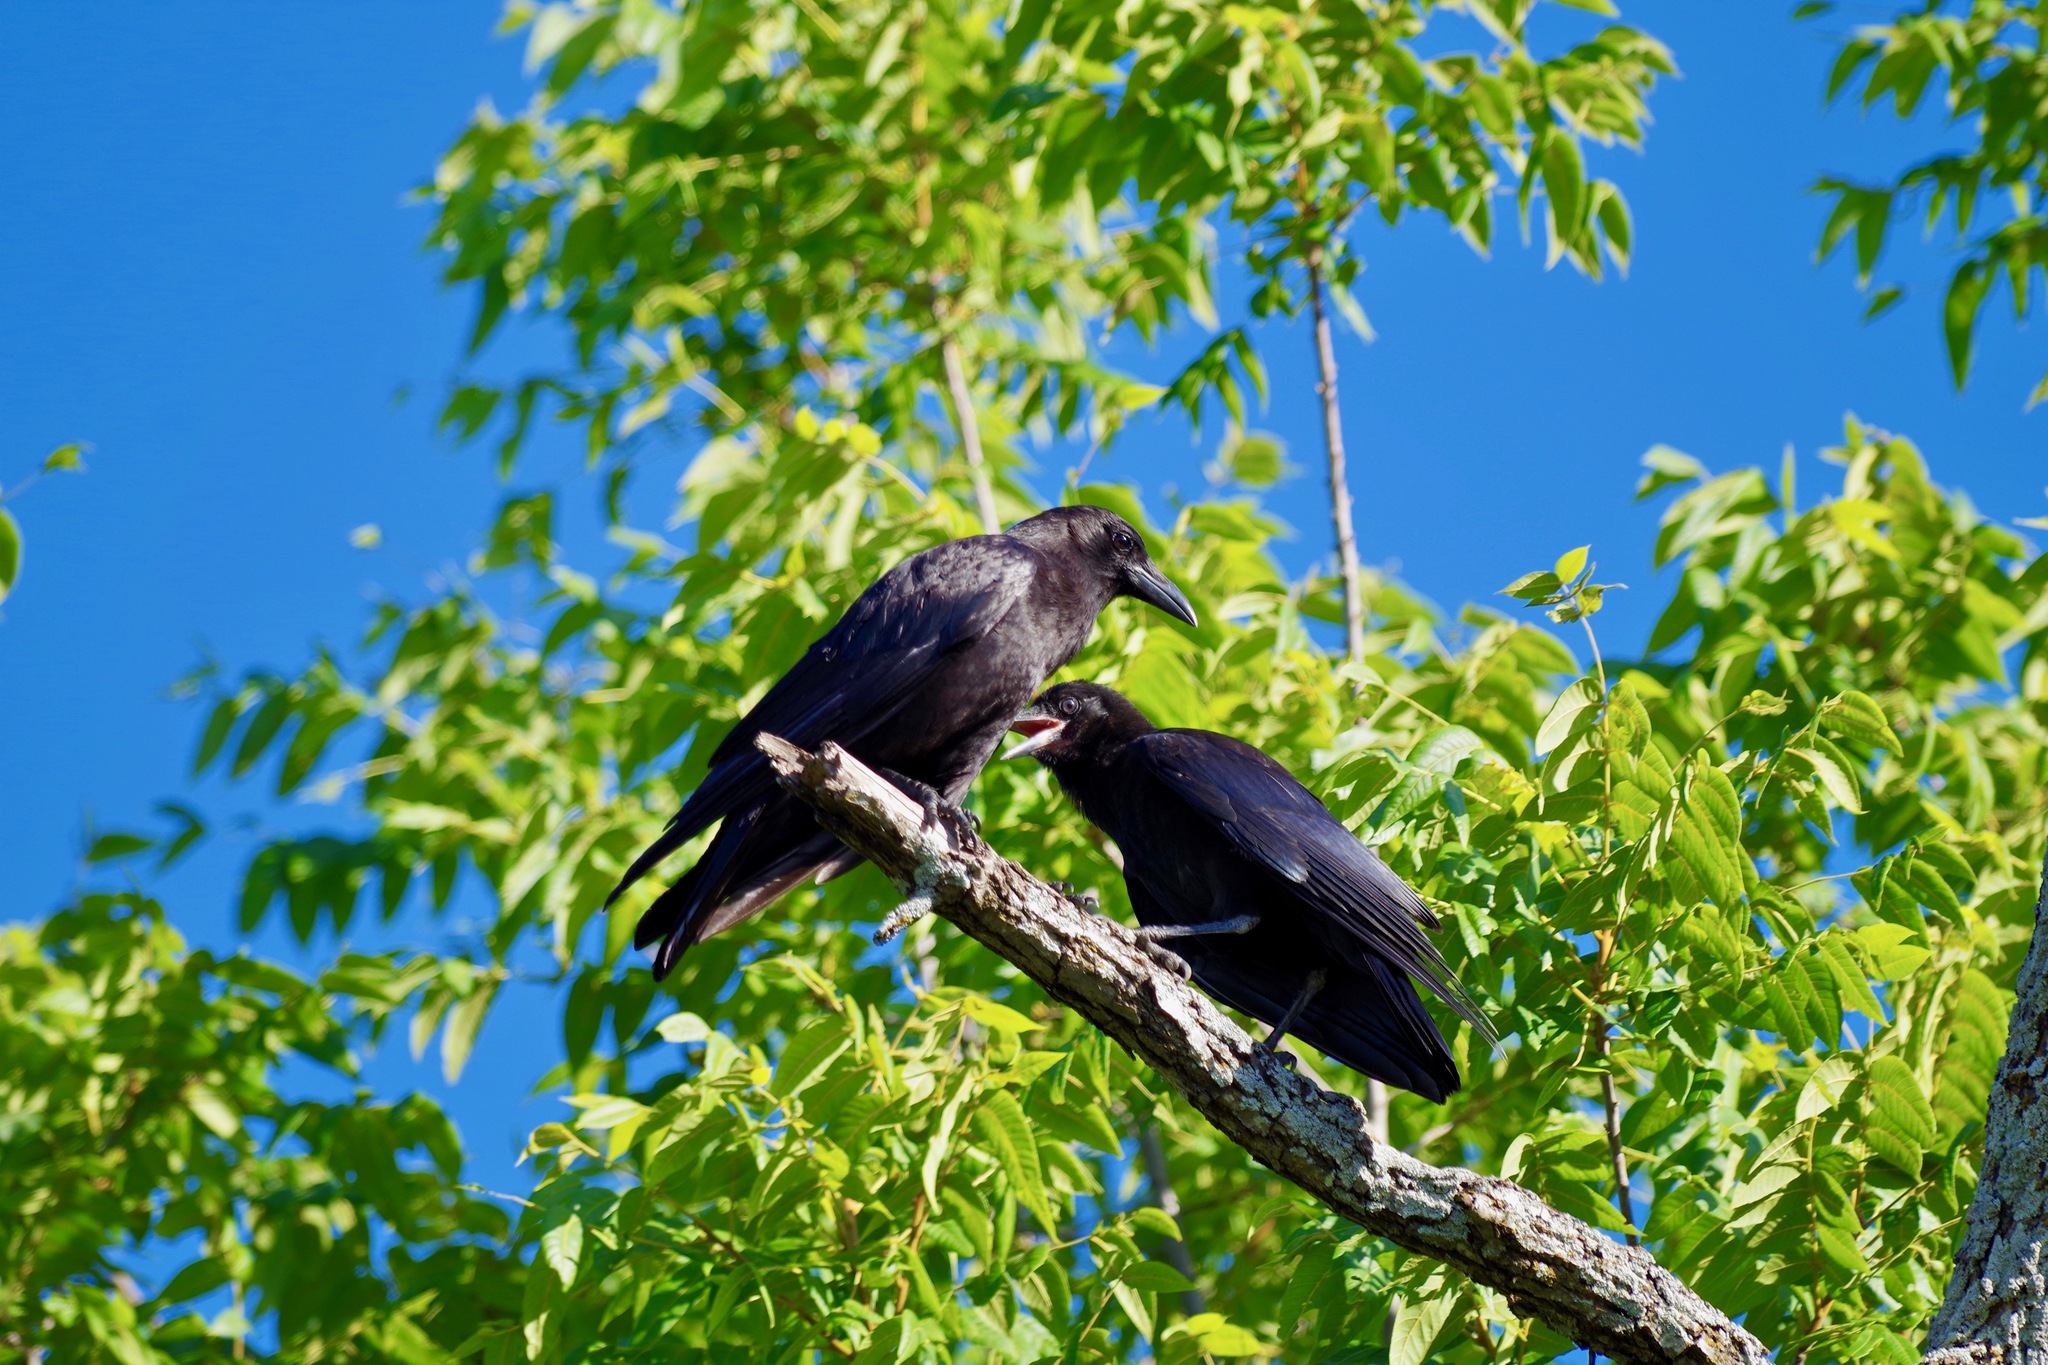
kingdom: Animalia
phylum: Chordata
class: Aves
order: Passeriformes
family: Corvidae
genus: Corvus
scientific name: Corvus brachyrhynchos
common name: American crow
